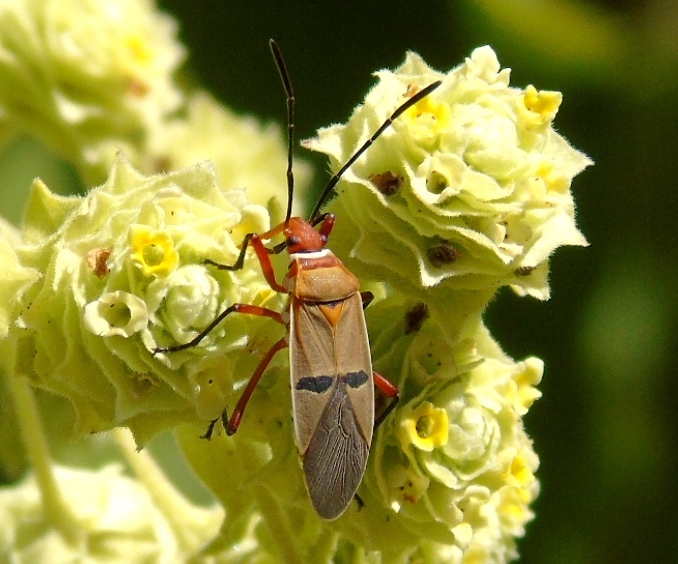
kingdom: Animalia
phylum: Arthropoda
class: Insecta
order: Hemiptera
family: Pyrrhocoridae
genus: Dysdercus
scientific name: Dysdercus bimaculatus
